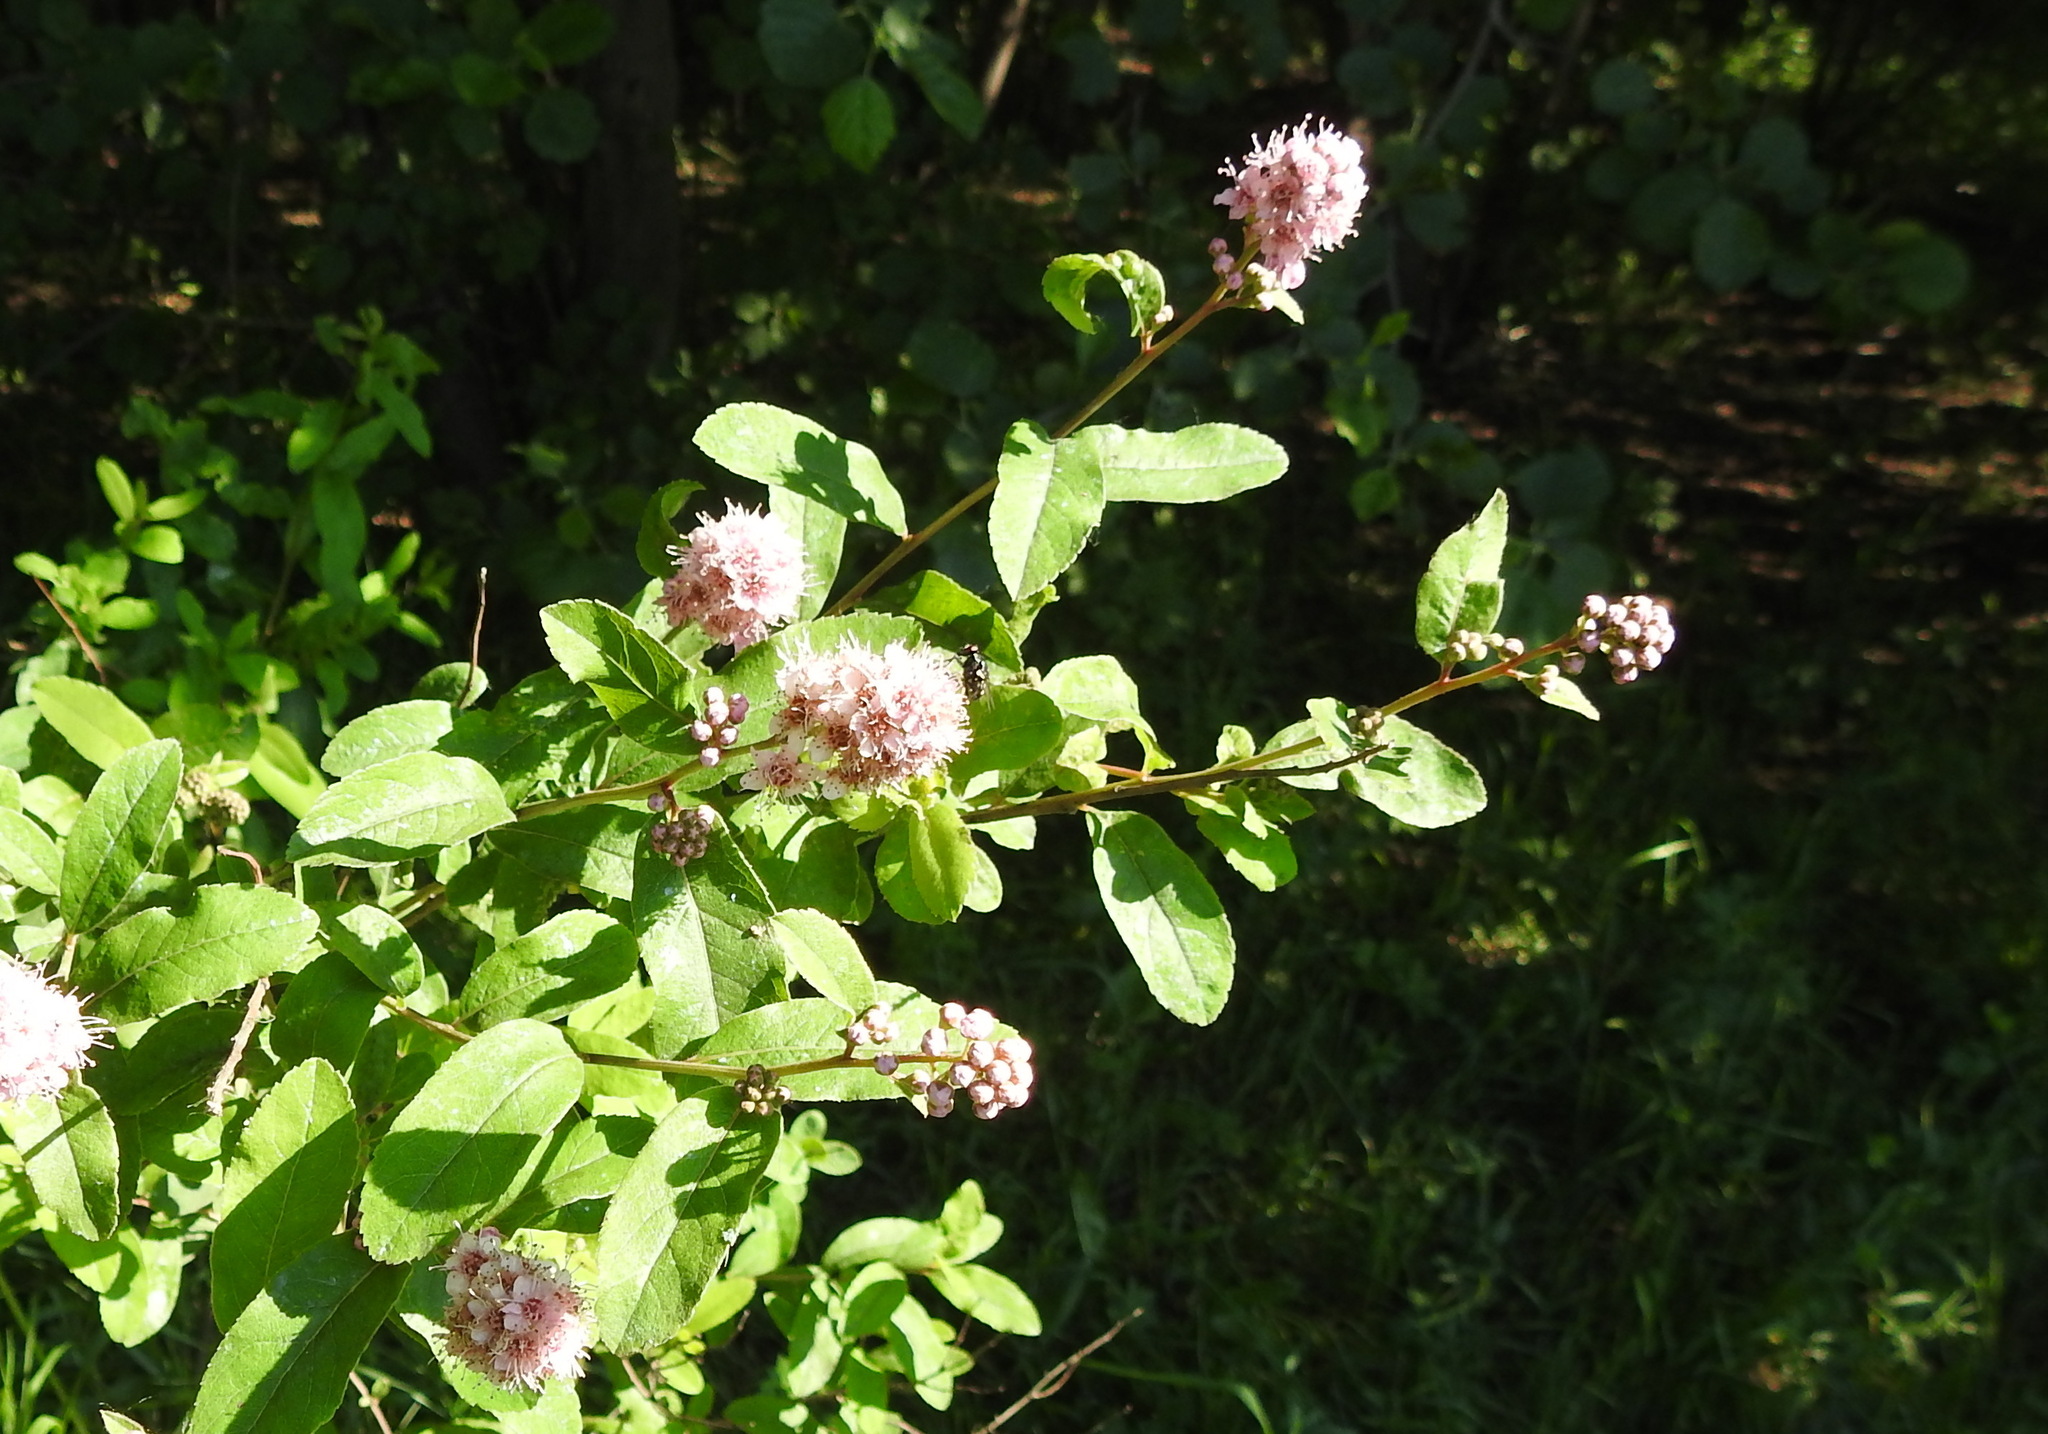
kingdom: Plantae
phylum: Tracheophyta
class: Magnoliopsida
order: Rosales
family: Rosaceae
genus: Spiraea
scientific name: Spiraea salicifolia
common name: Bridewort
